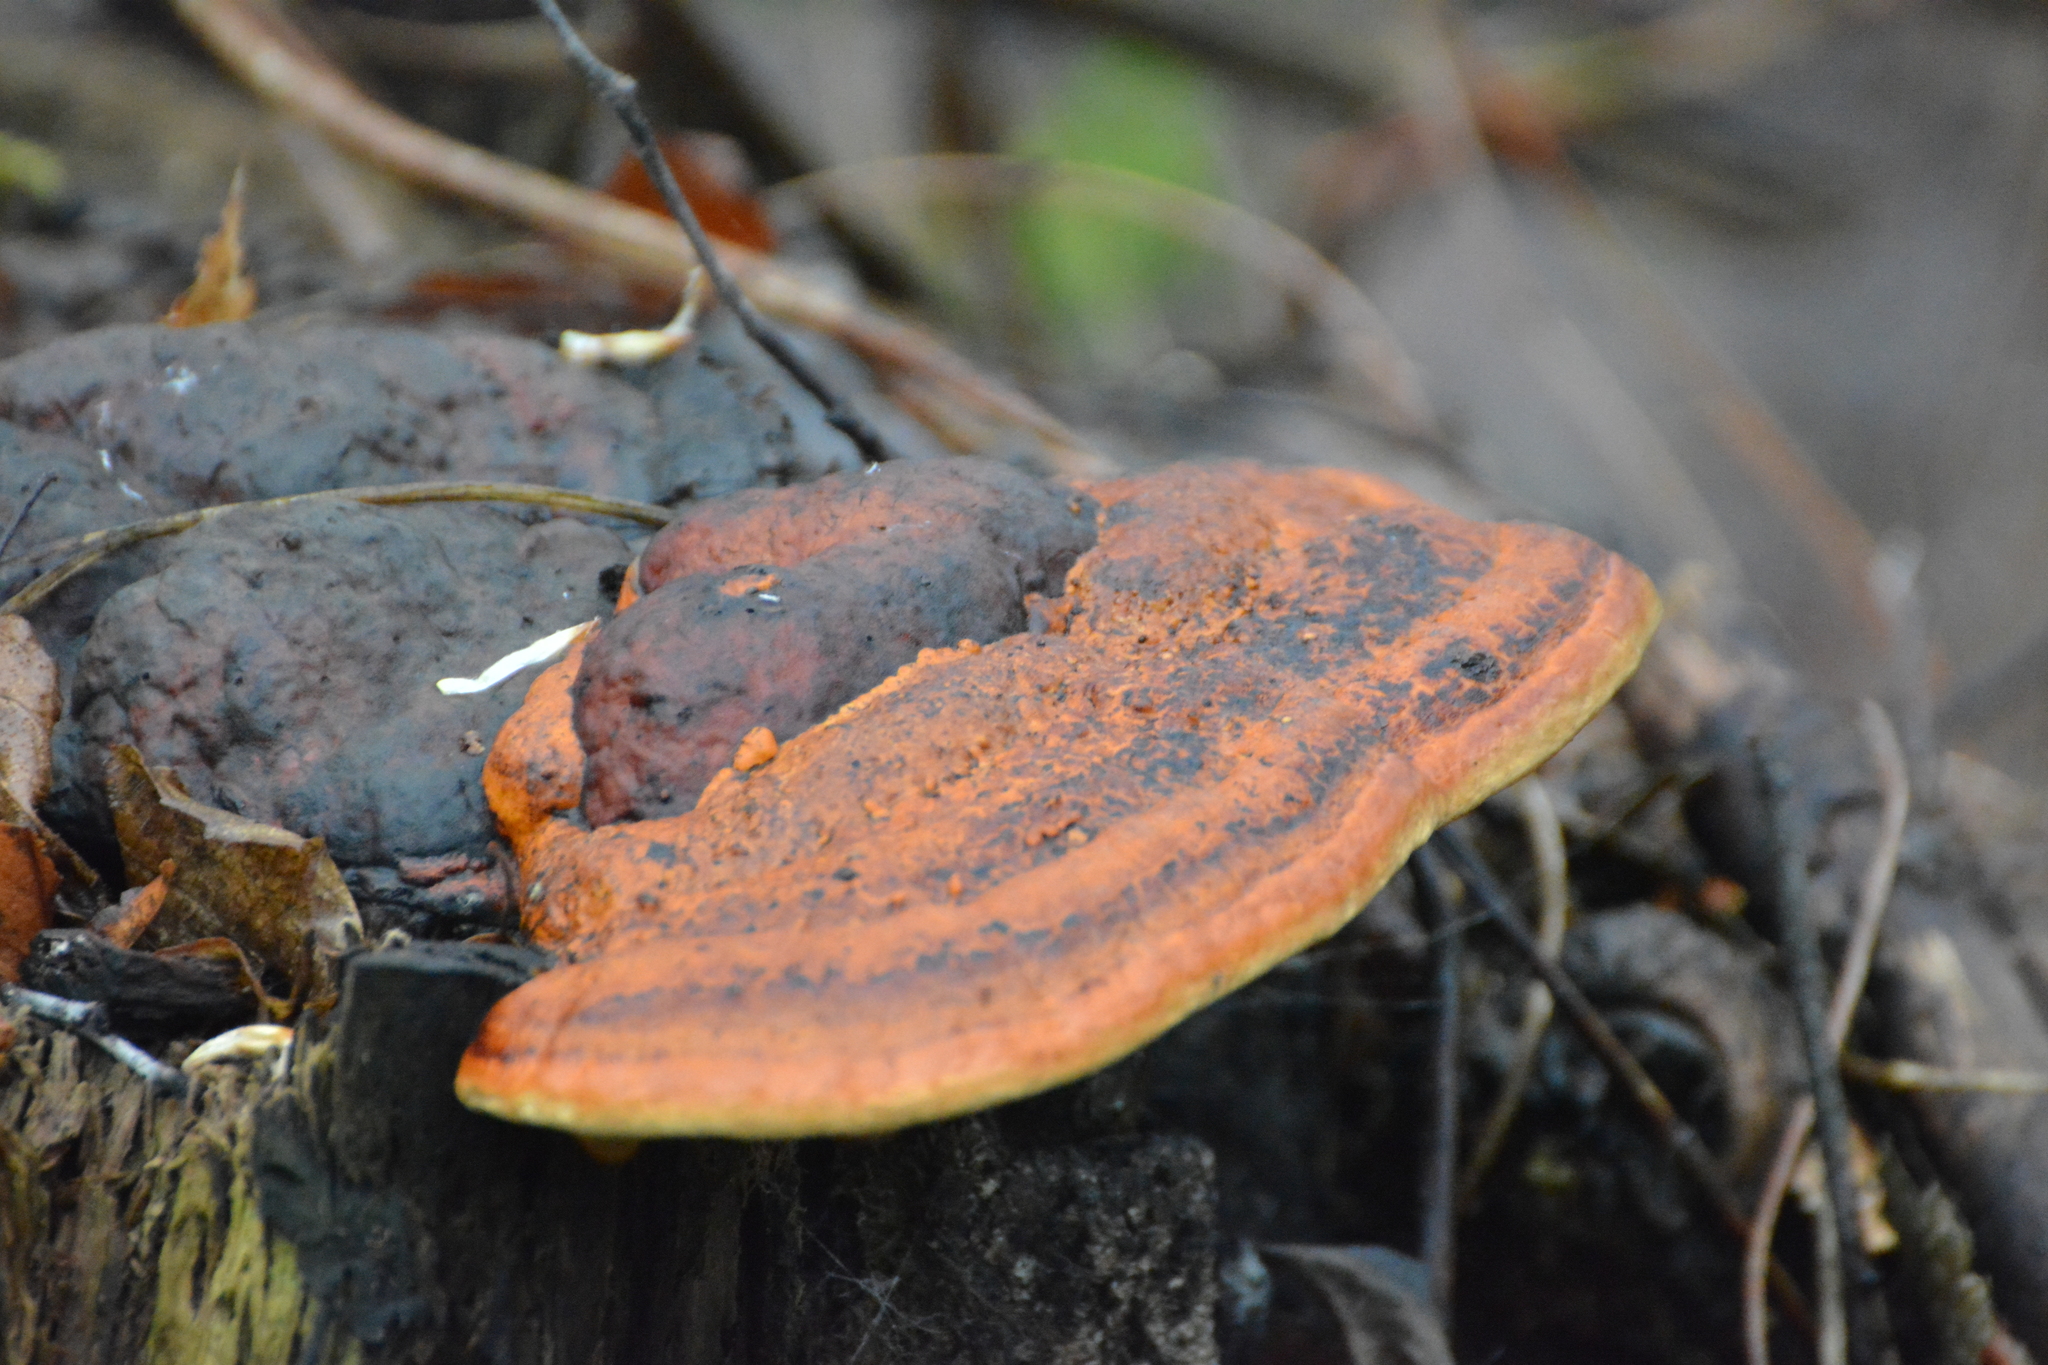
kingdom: Fungi
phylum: Basidiomycota
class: Agaricomycetes
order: Polyporales
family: Fomitopsidaceae
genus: Fomitopsis
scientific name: Fomitopsis pinicola
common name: Red-belted bracket
